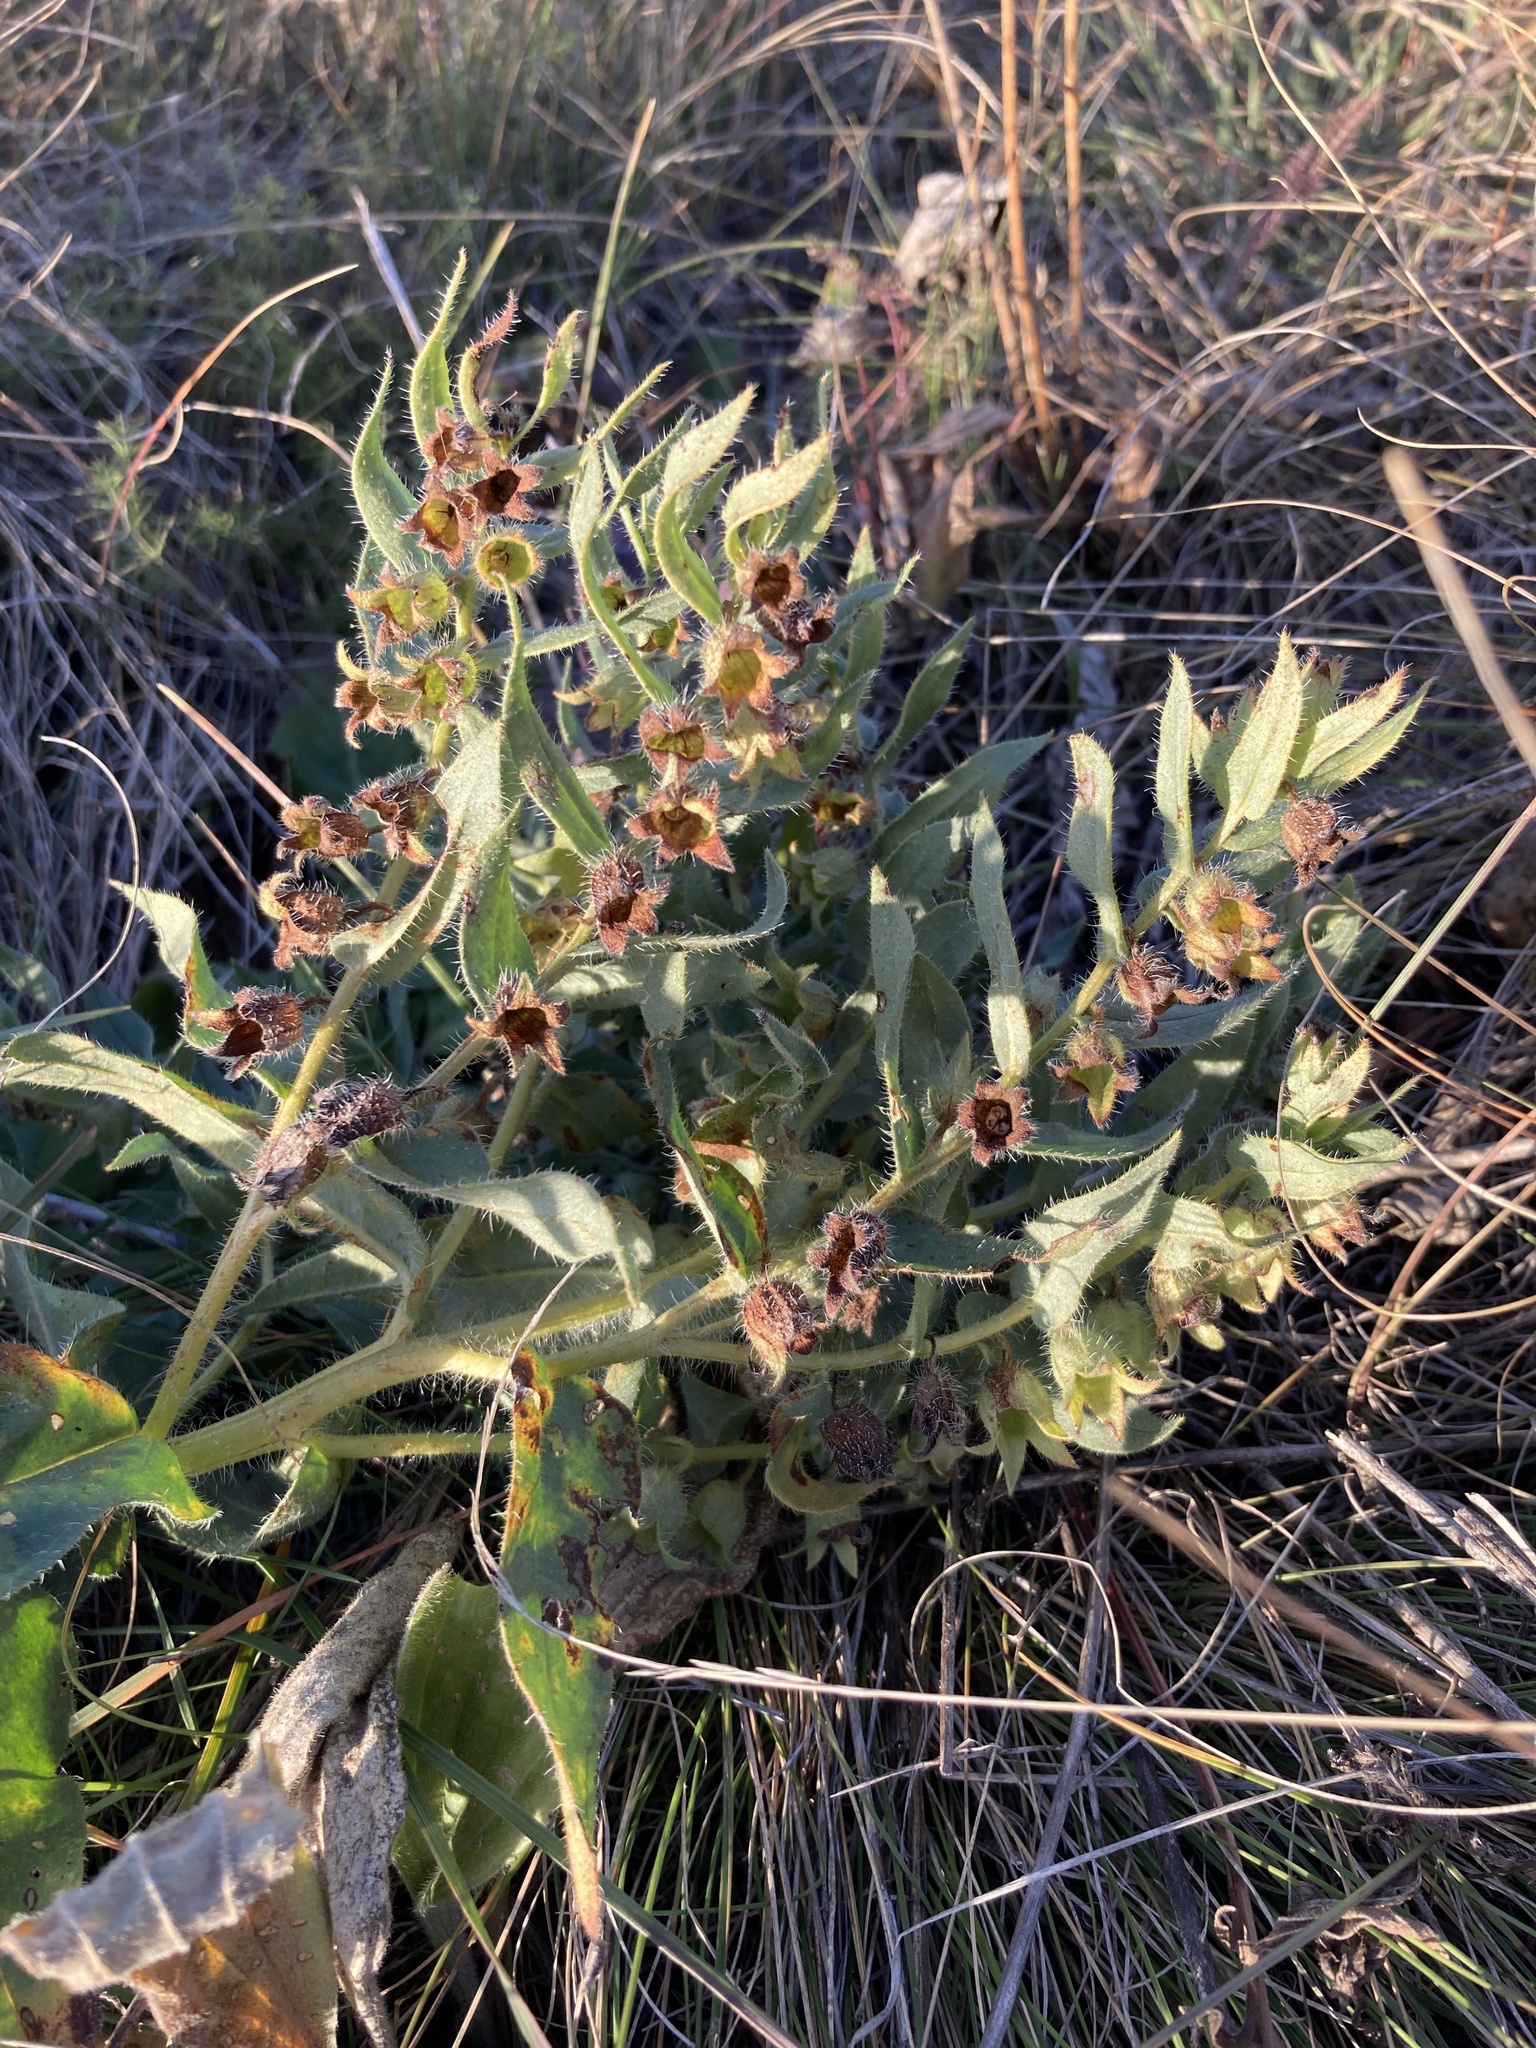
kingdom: Plantae
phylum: Tracheophyta
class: Magnoliopsida
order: Boraginales
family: Boraginaceae
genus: Nonea
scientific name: Nonea pulla
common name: Brown nonea
